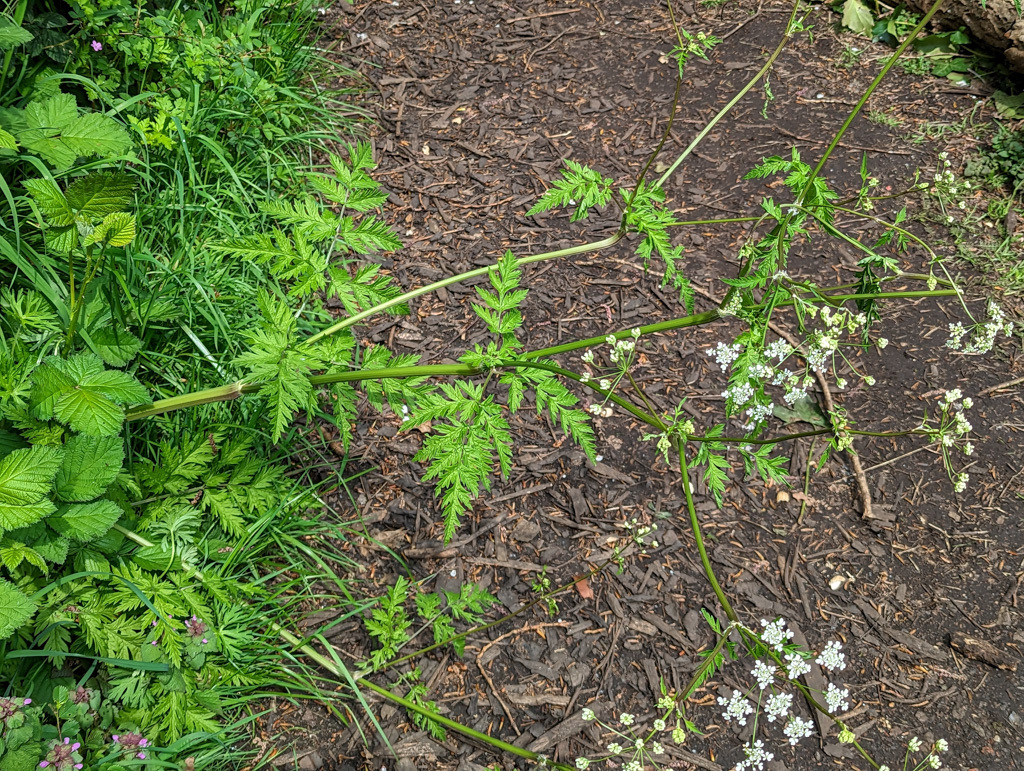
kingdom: Plantae
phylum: Tracheophyta
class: Magnoliopsida
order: Apiales
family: Apiaceae
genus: Anthriscus
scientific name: Anthriscus sylvestris
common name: Cow parsley
